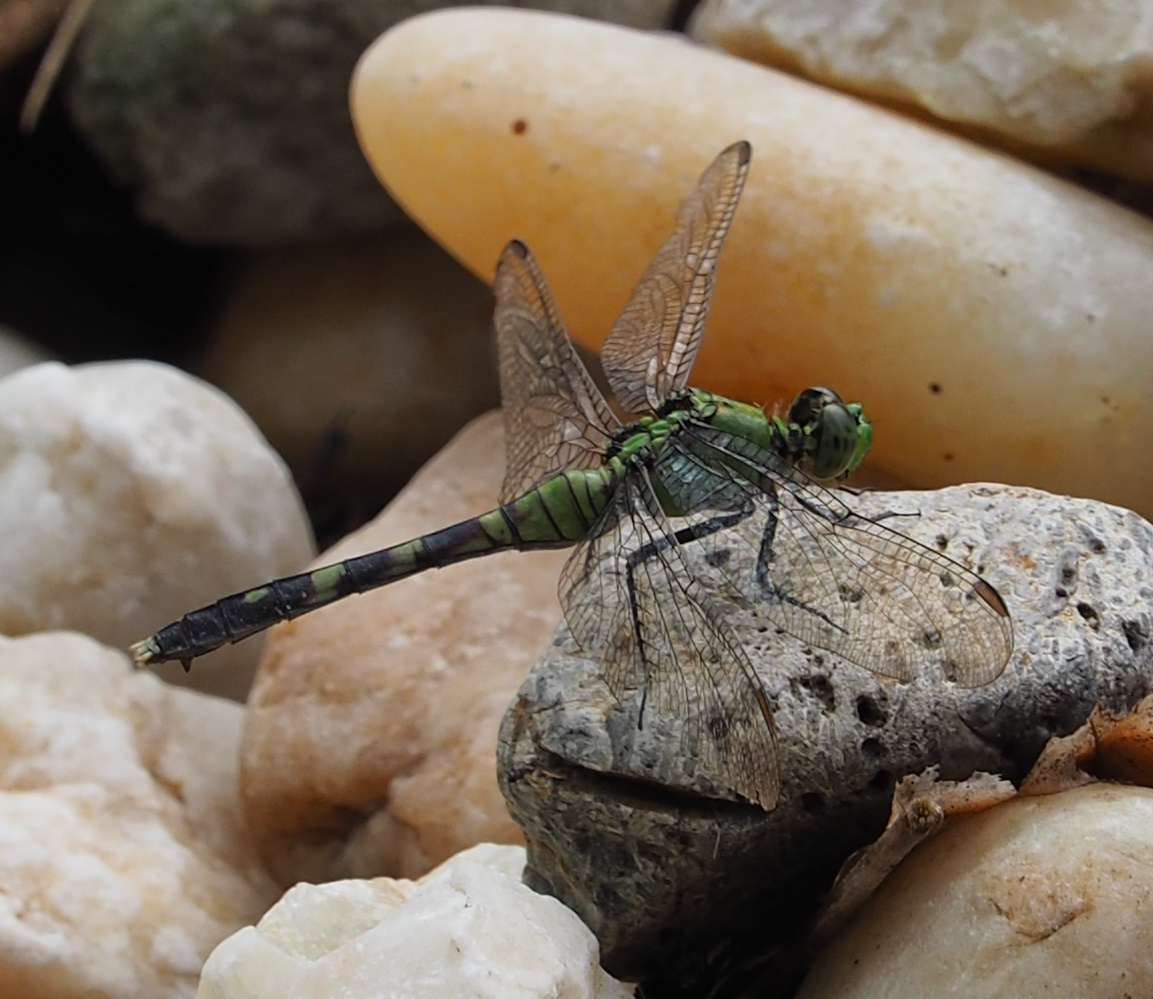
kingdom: Animalia
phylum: Arthropoda
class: Insecta
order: Odonata
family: Libellulidae
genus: Erythemis
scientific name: Erythemis simplicicollis
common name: Eastern pondhawk
